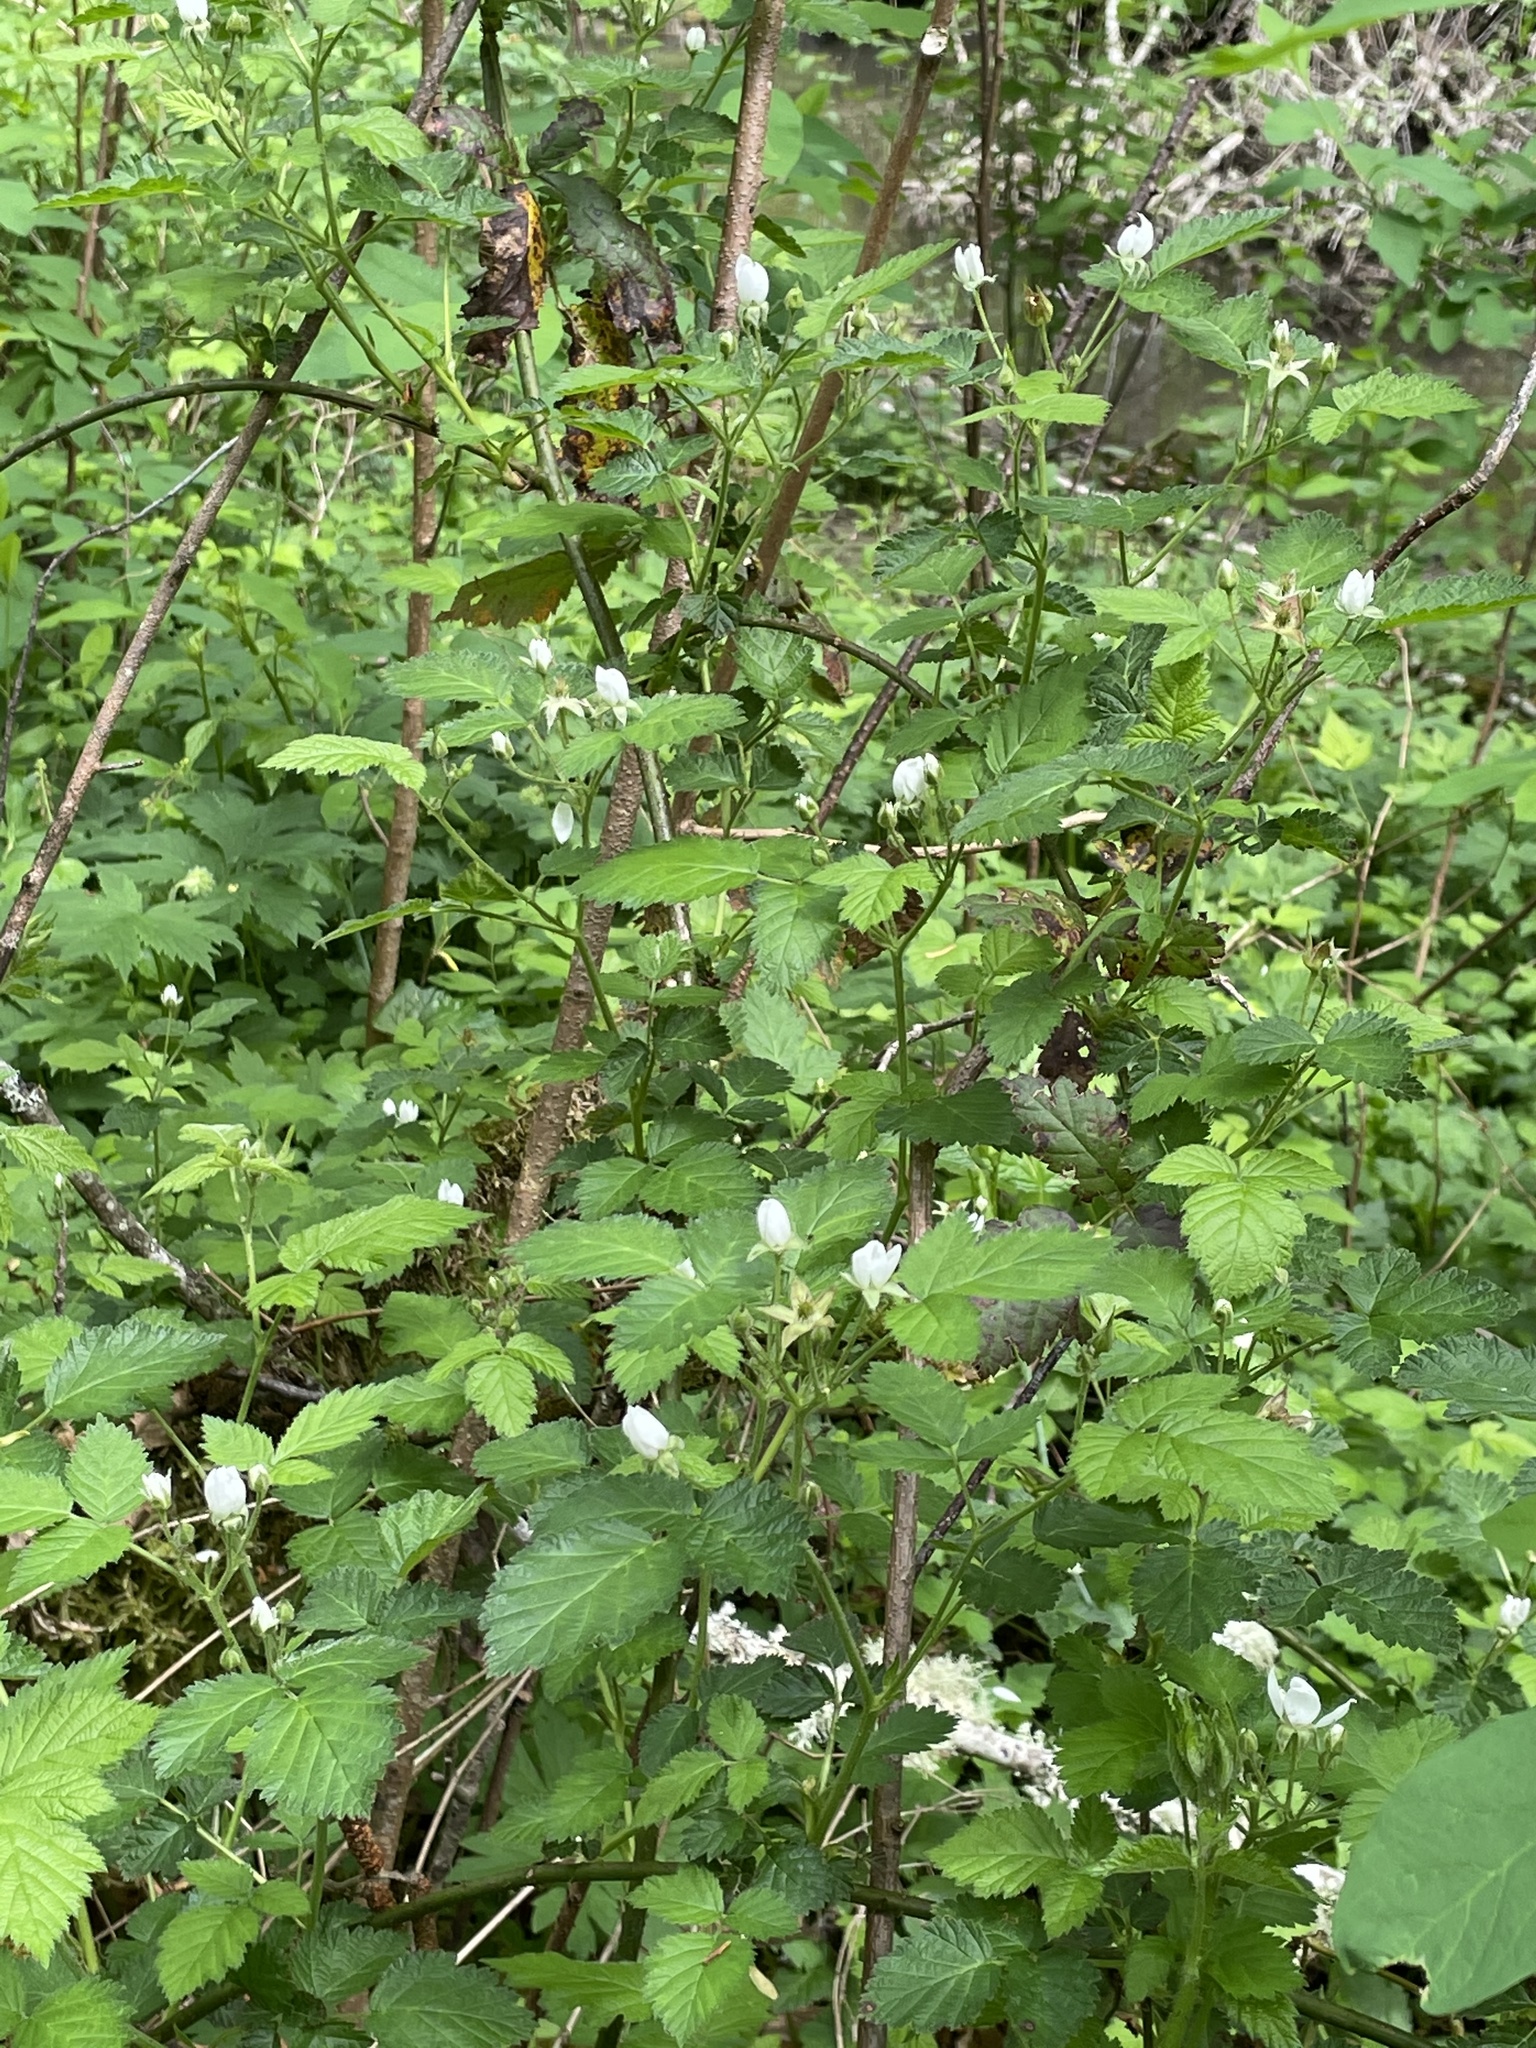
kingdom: Plantae
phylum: Tracheophyta
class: Magnoliopsida
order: Rosales
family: Rosaceae
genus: Rubus
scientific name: Rubus ursinus
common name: Pacific blackberry
